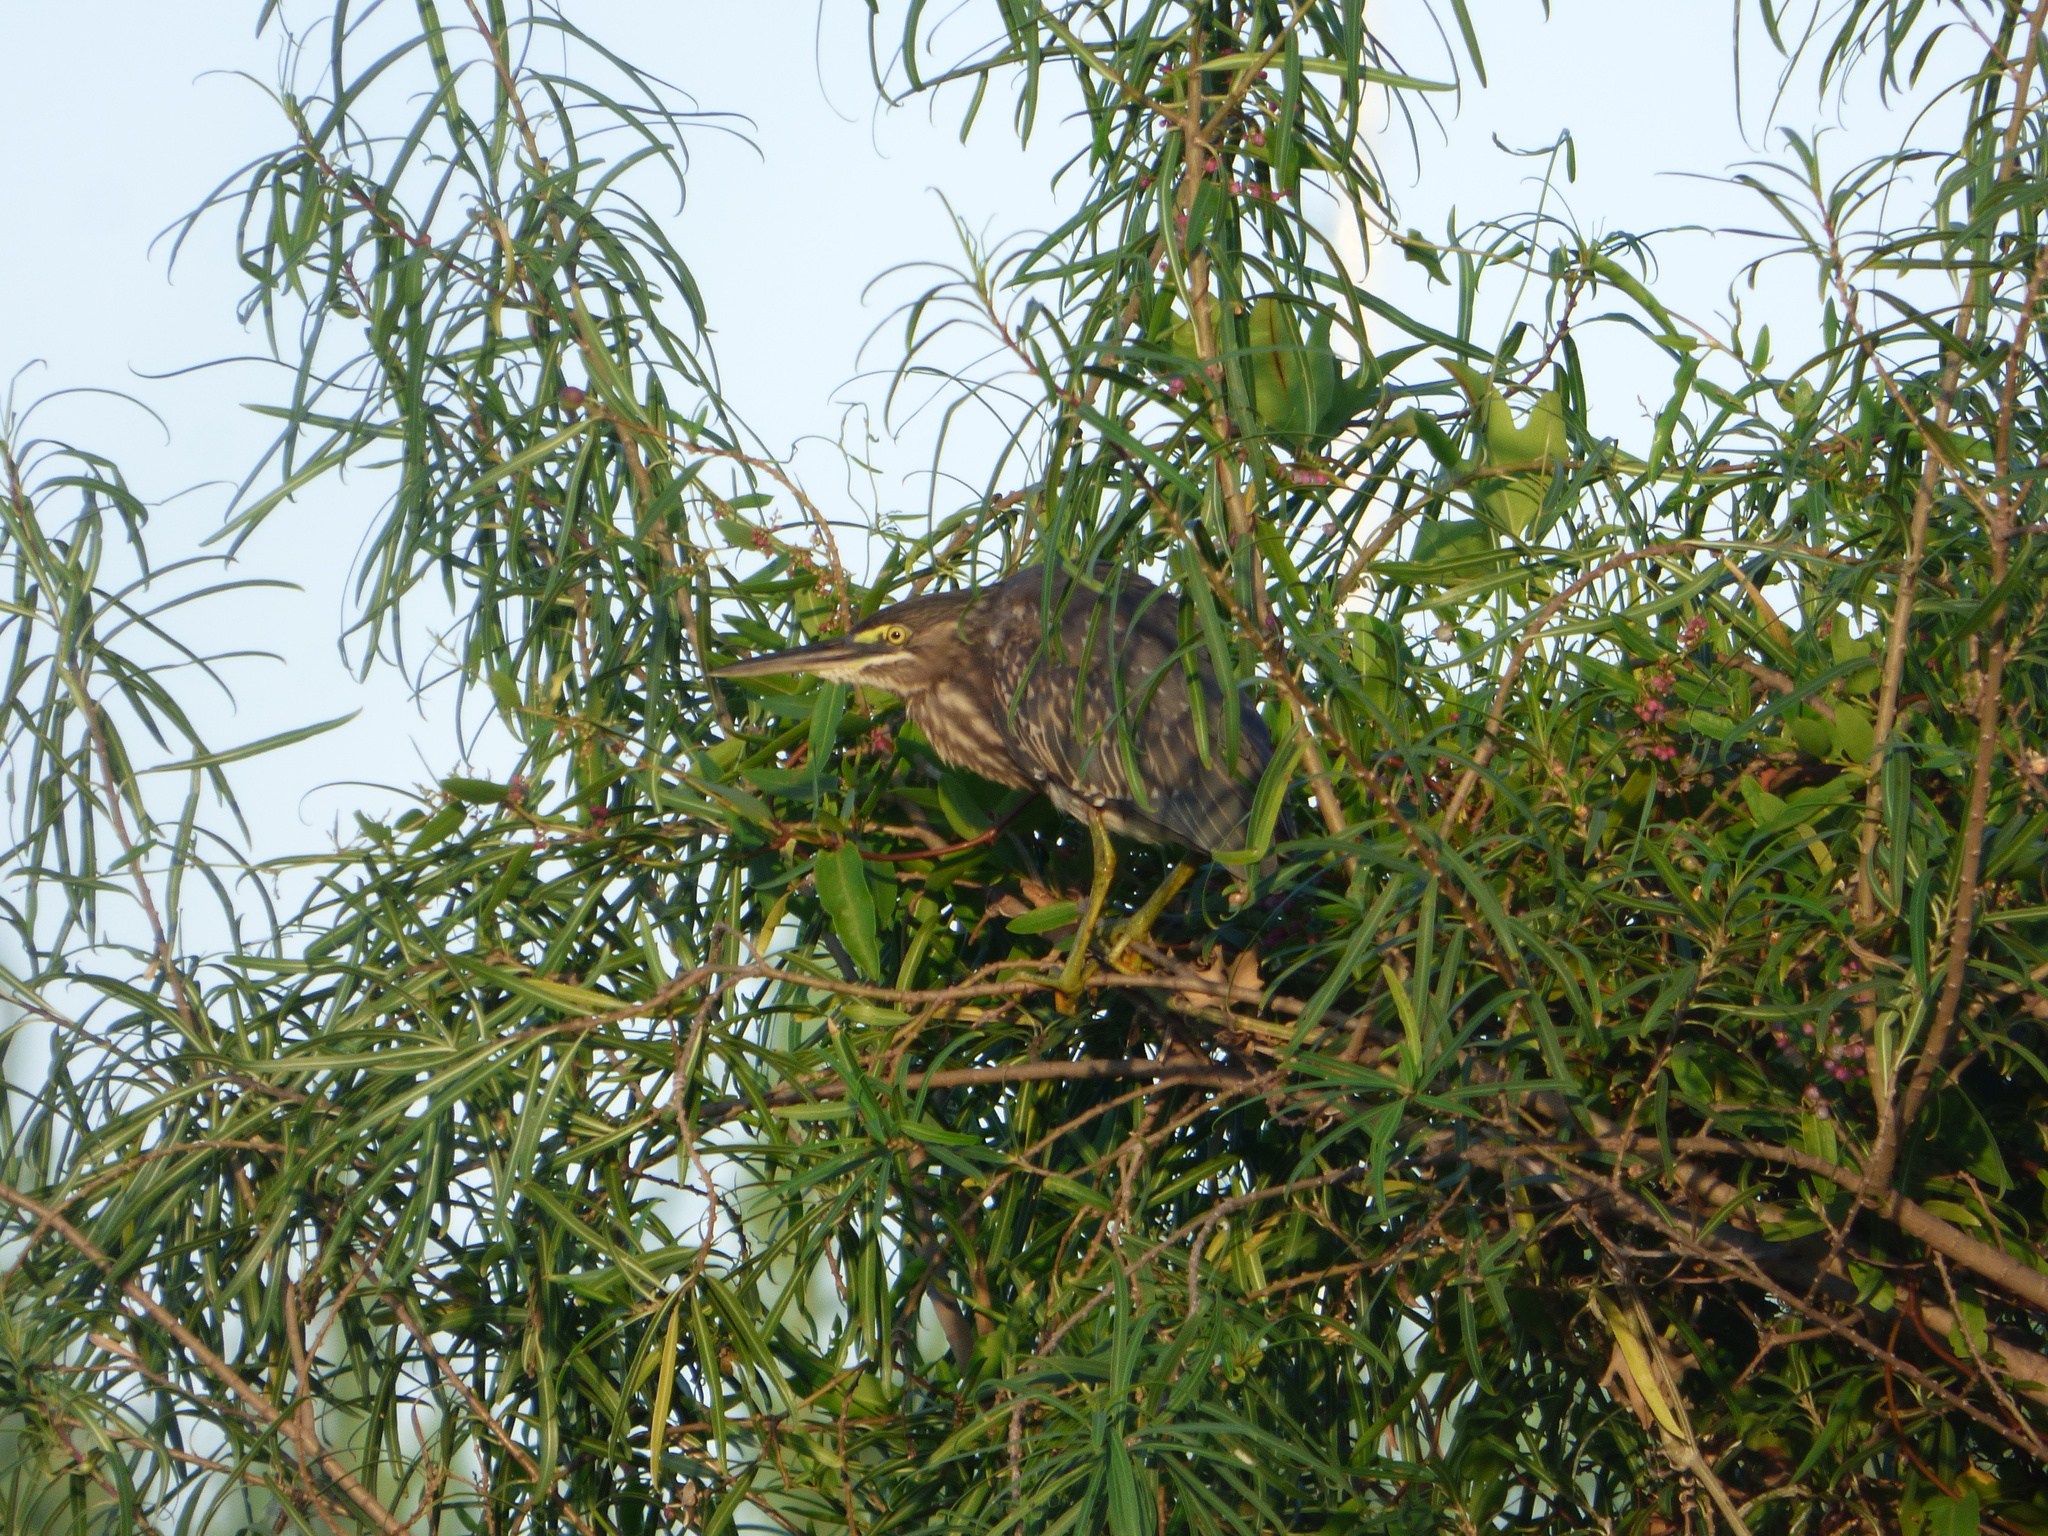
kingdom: Animalia
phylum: Chordata
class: Aves
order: Pelecaniformes
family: Ardeidae
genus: Butorides
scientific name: Butorides striata
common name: Striated heron
